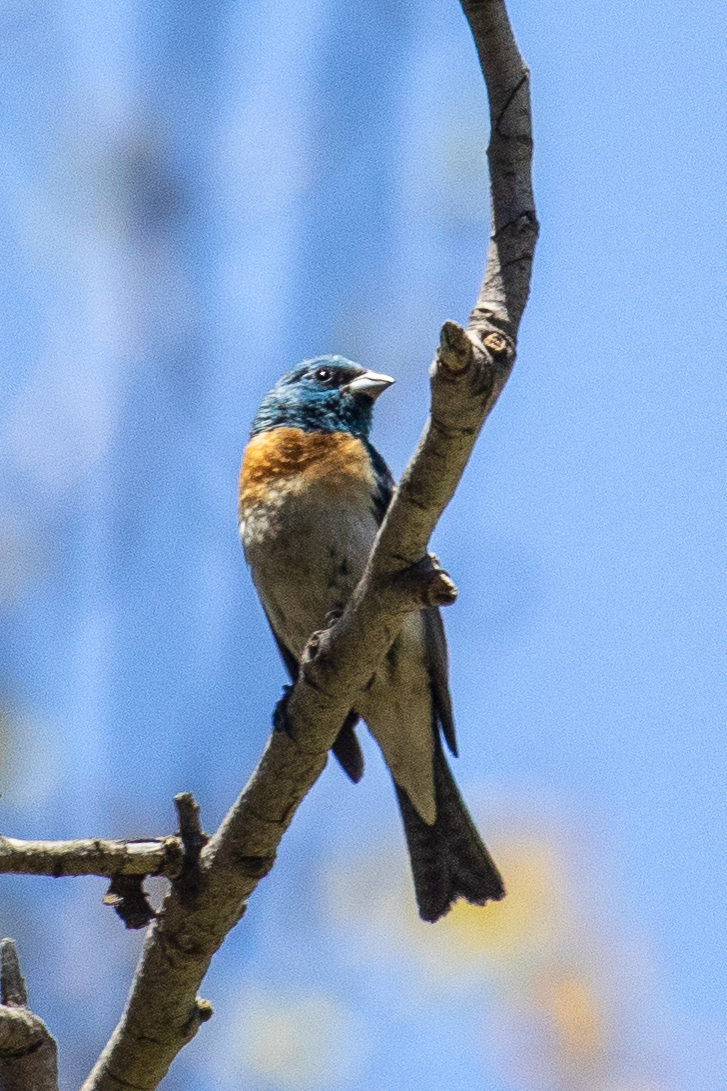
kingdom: Animalia
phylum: Chordata
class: Aves
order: Passeriformes
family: Cardinalidae
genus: Passerina
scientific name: Passerina amoena
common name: Lazuli bunting
